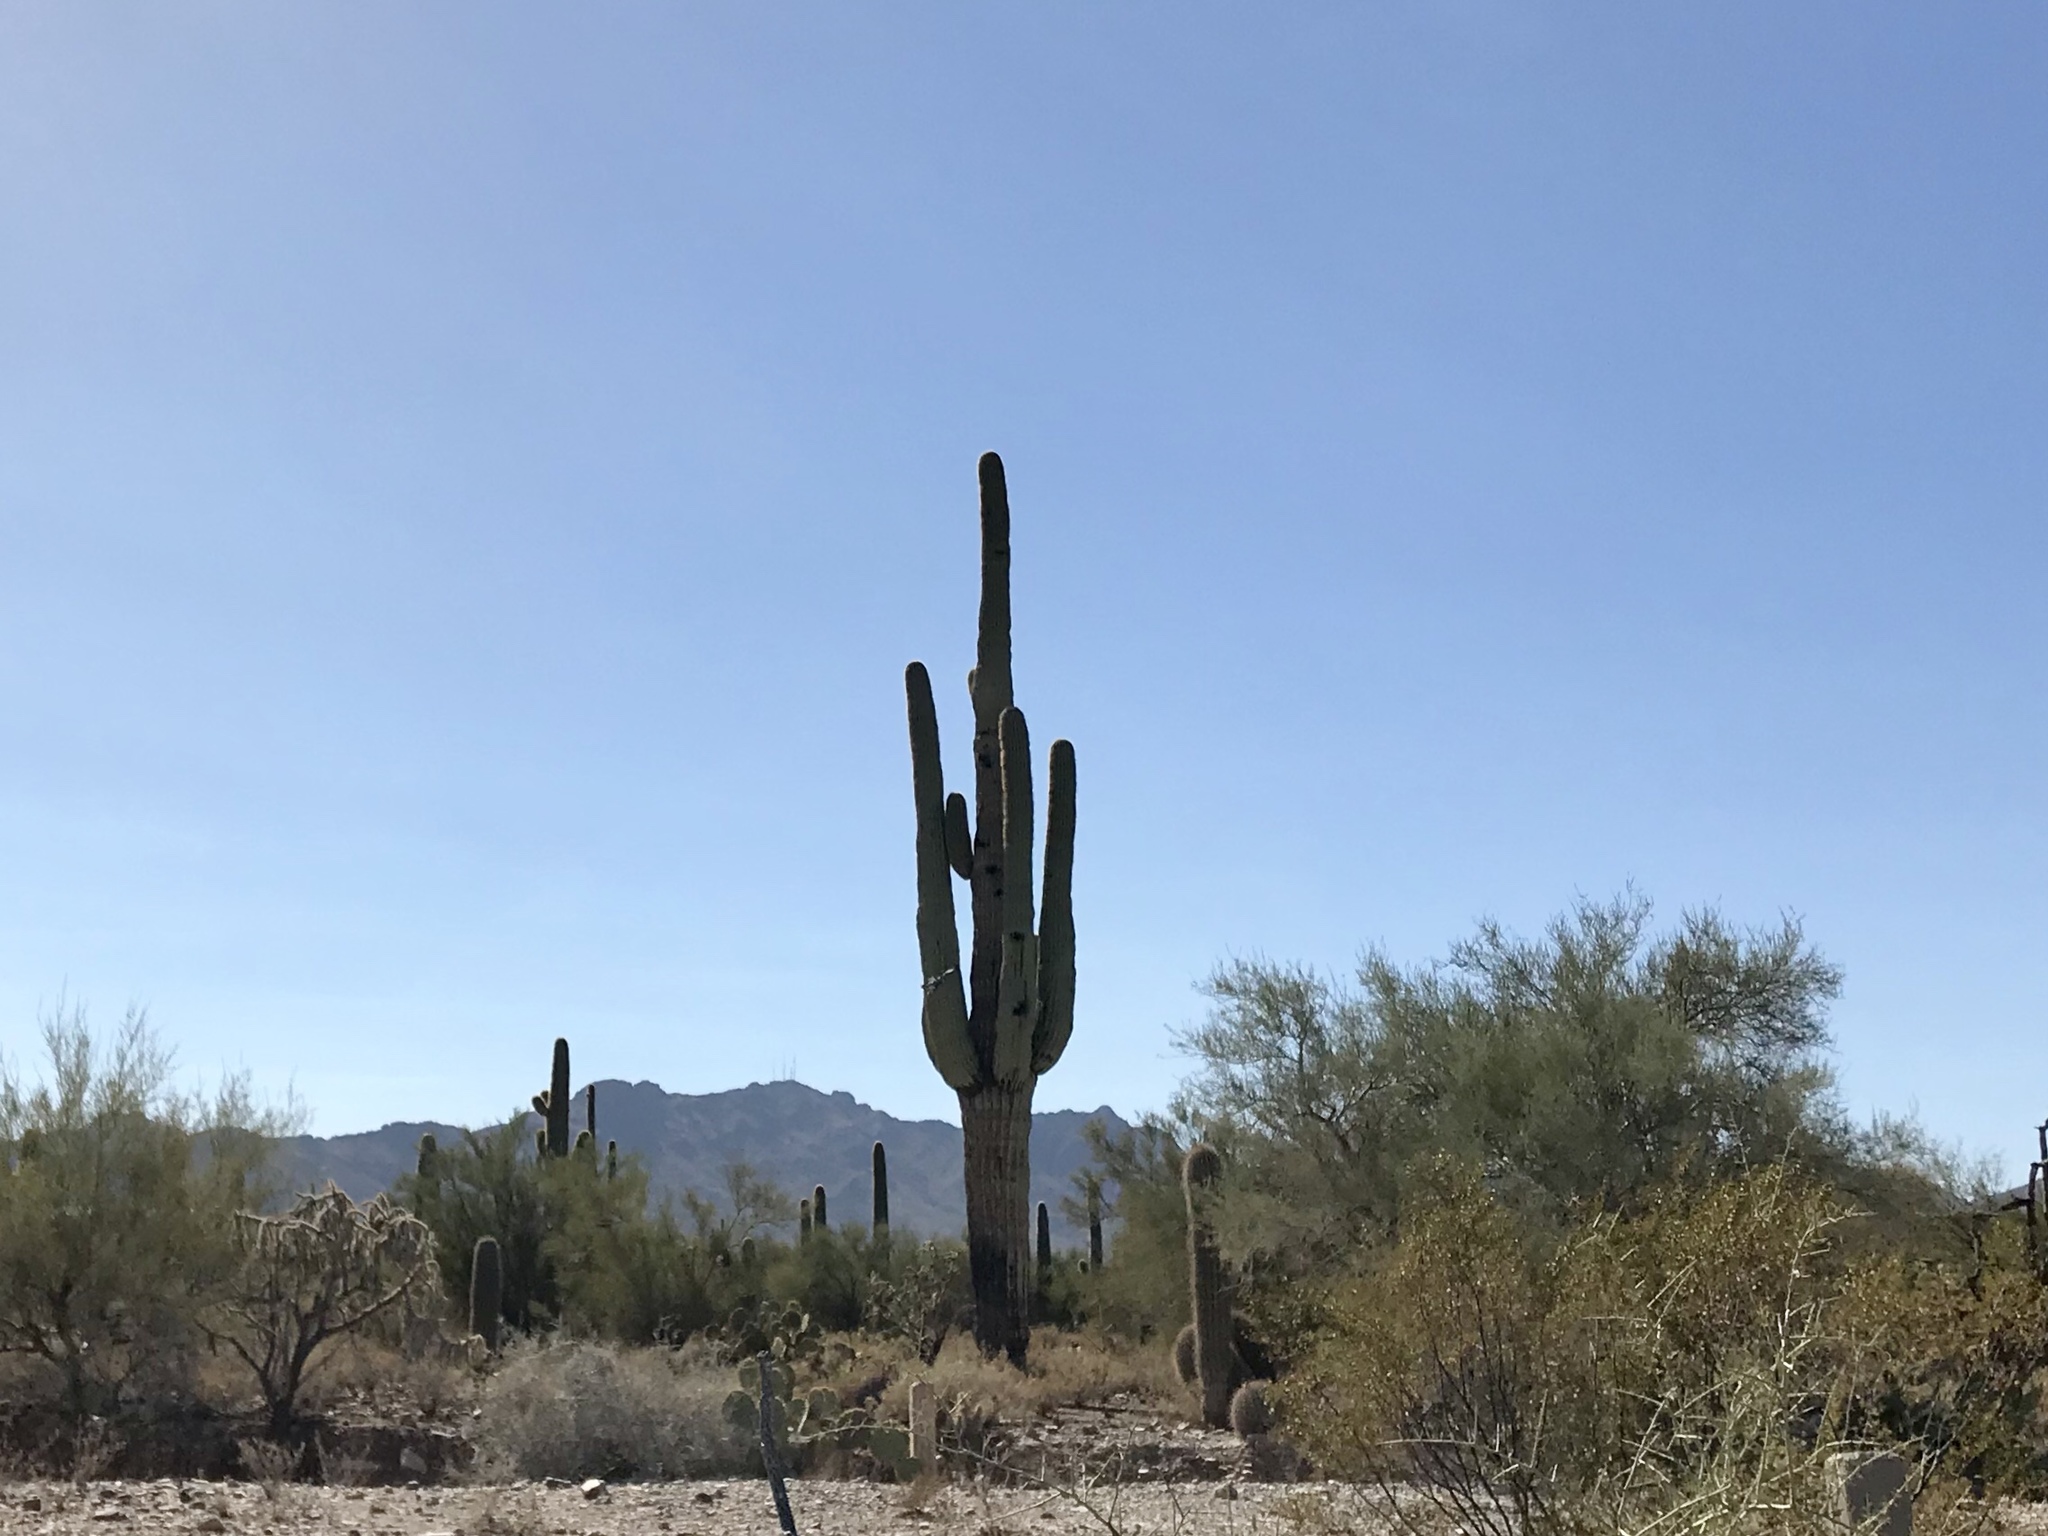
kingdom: Plantae
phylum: Tracheophyta
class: Magnoliopsida
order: Caryophyllales
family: Cactaceae
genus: Carnegiea
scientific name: Carnegiea gigantea
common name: Saguaro
